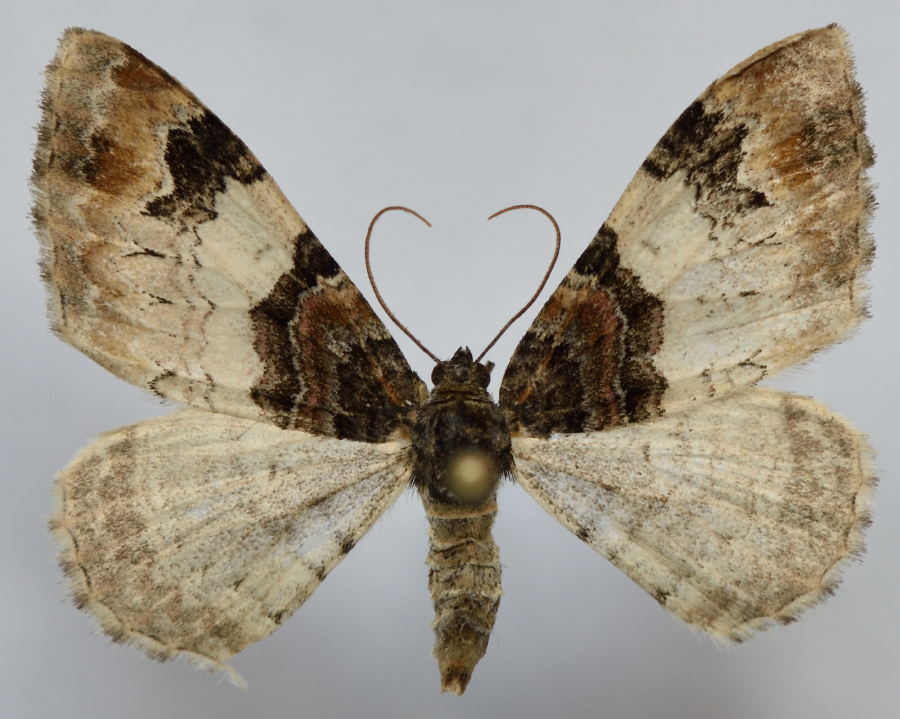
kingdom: Animalia
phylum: Arthropoda
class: Insecta
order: Lepidoptera
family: Geometridae
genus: Catarhoe
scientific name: Catarhoe cuculata
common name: Royal mantle
